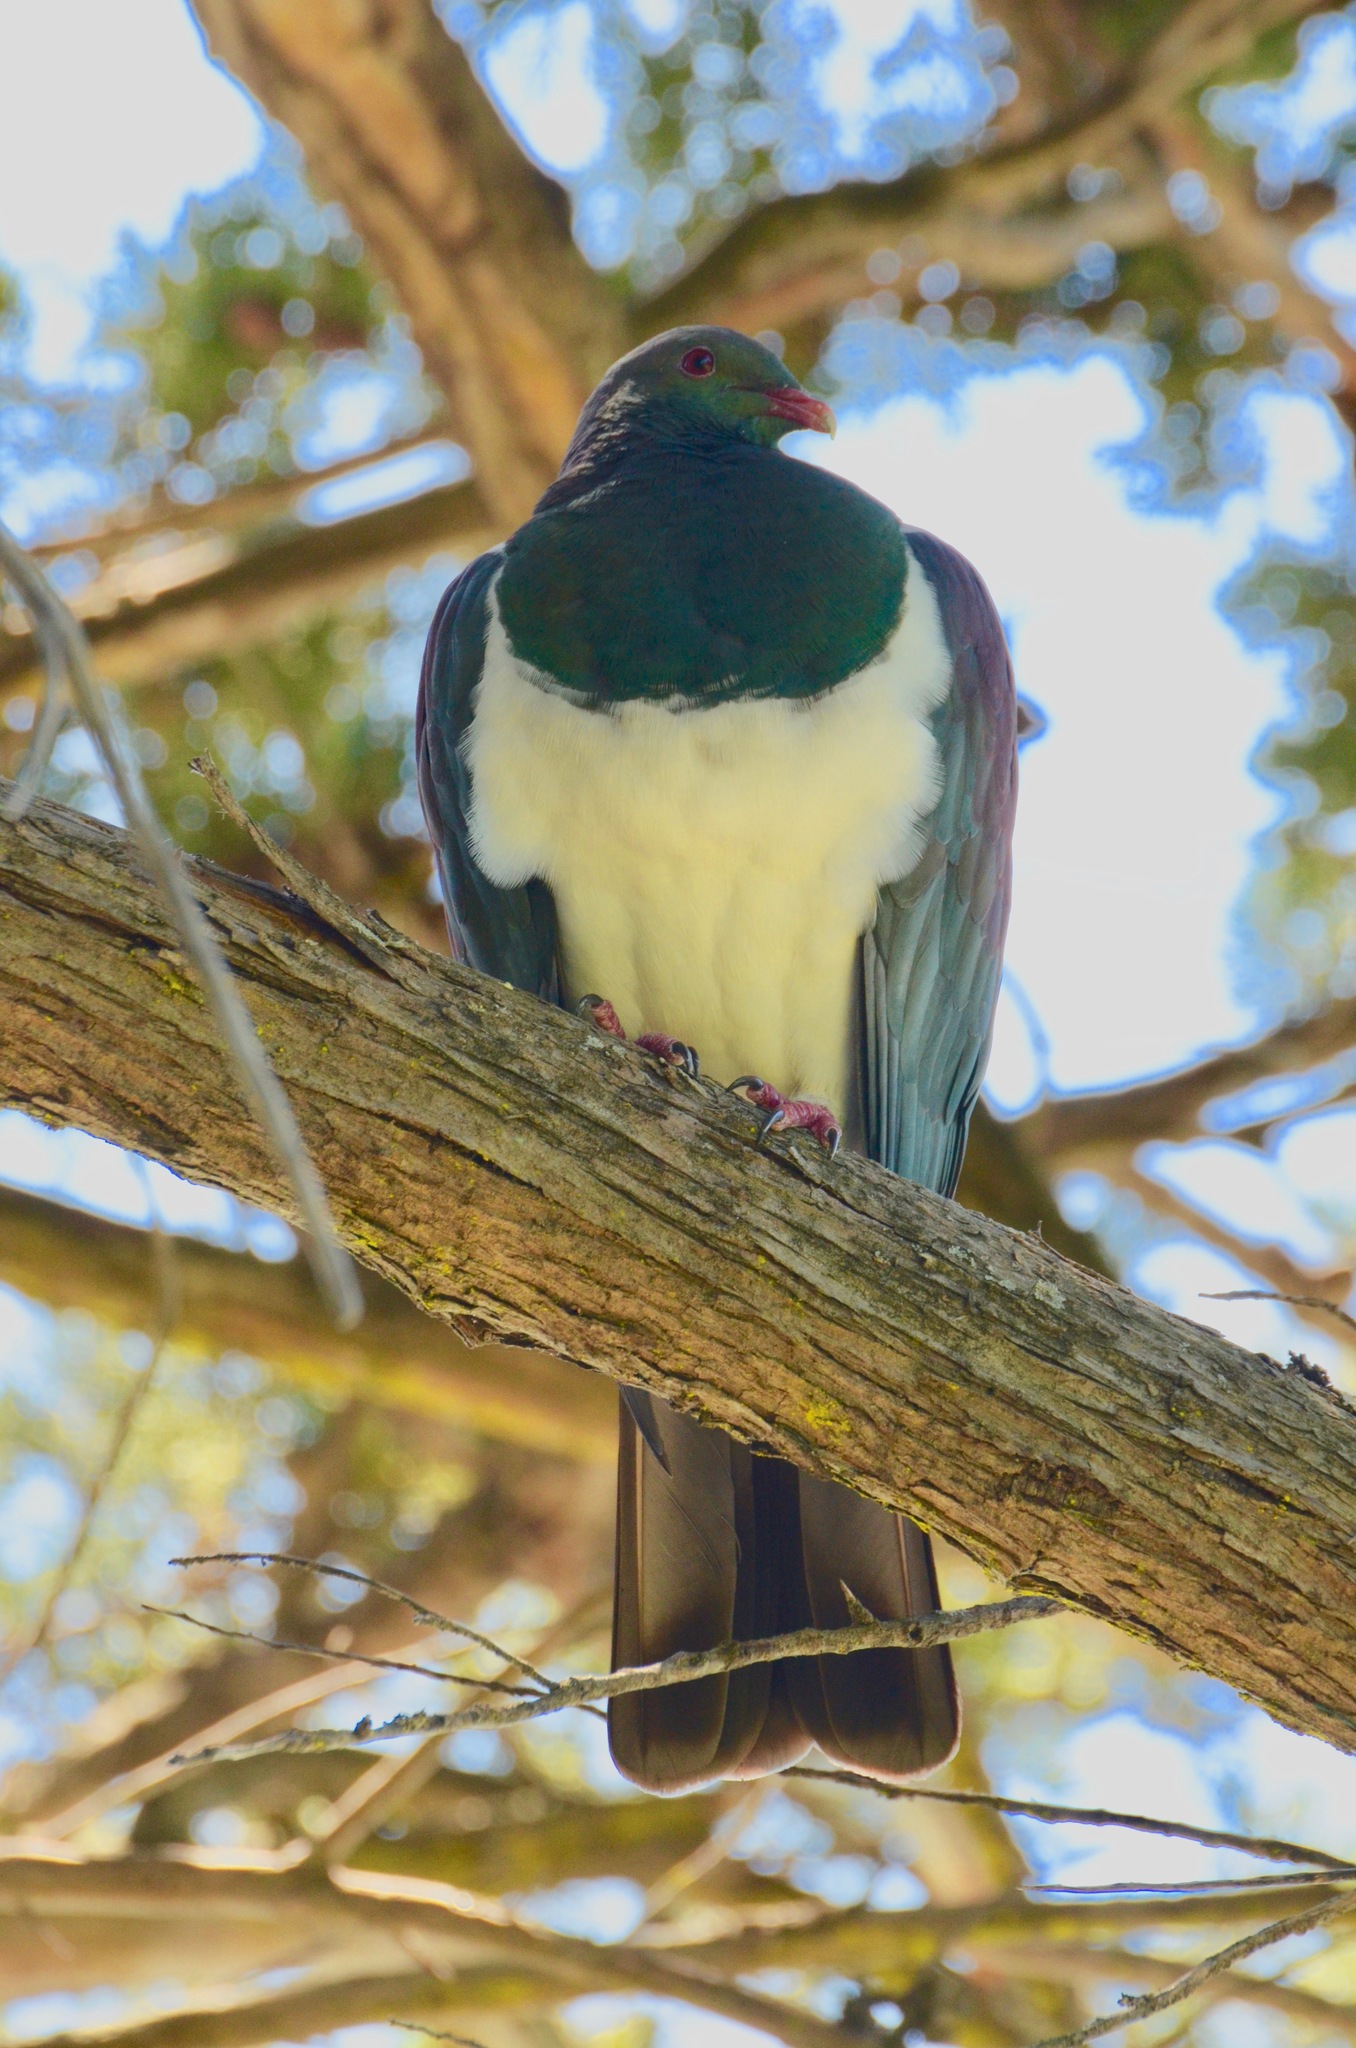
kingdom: Animalia
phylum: Chordata
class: Aves
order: Columbiformes
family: Columbidae
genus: Hemiphaga
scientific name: Hemiphaga novaeseelandiae
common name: New zealand pigeon
